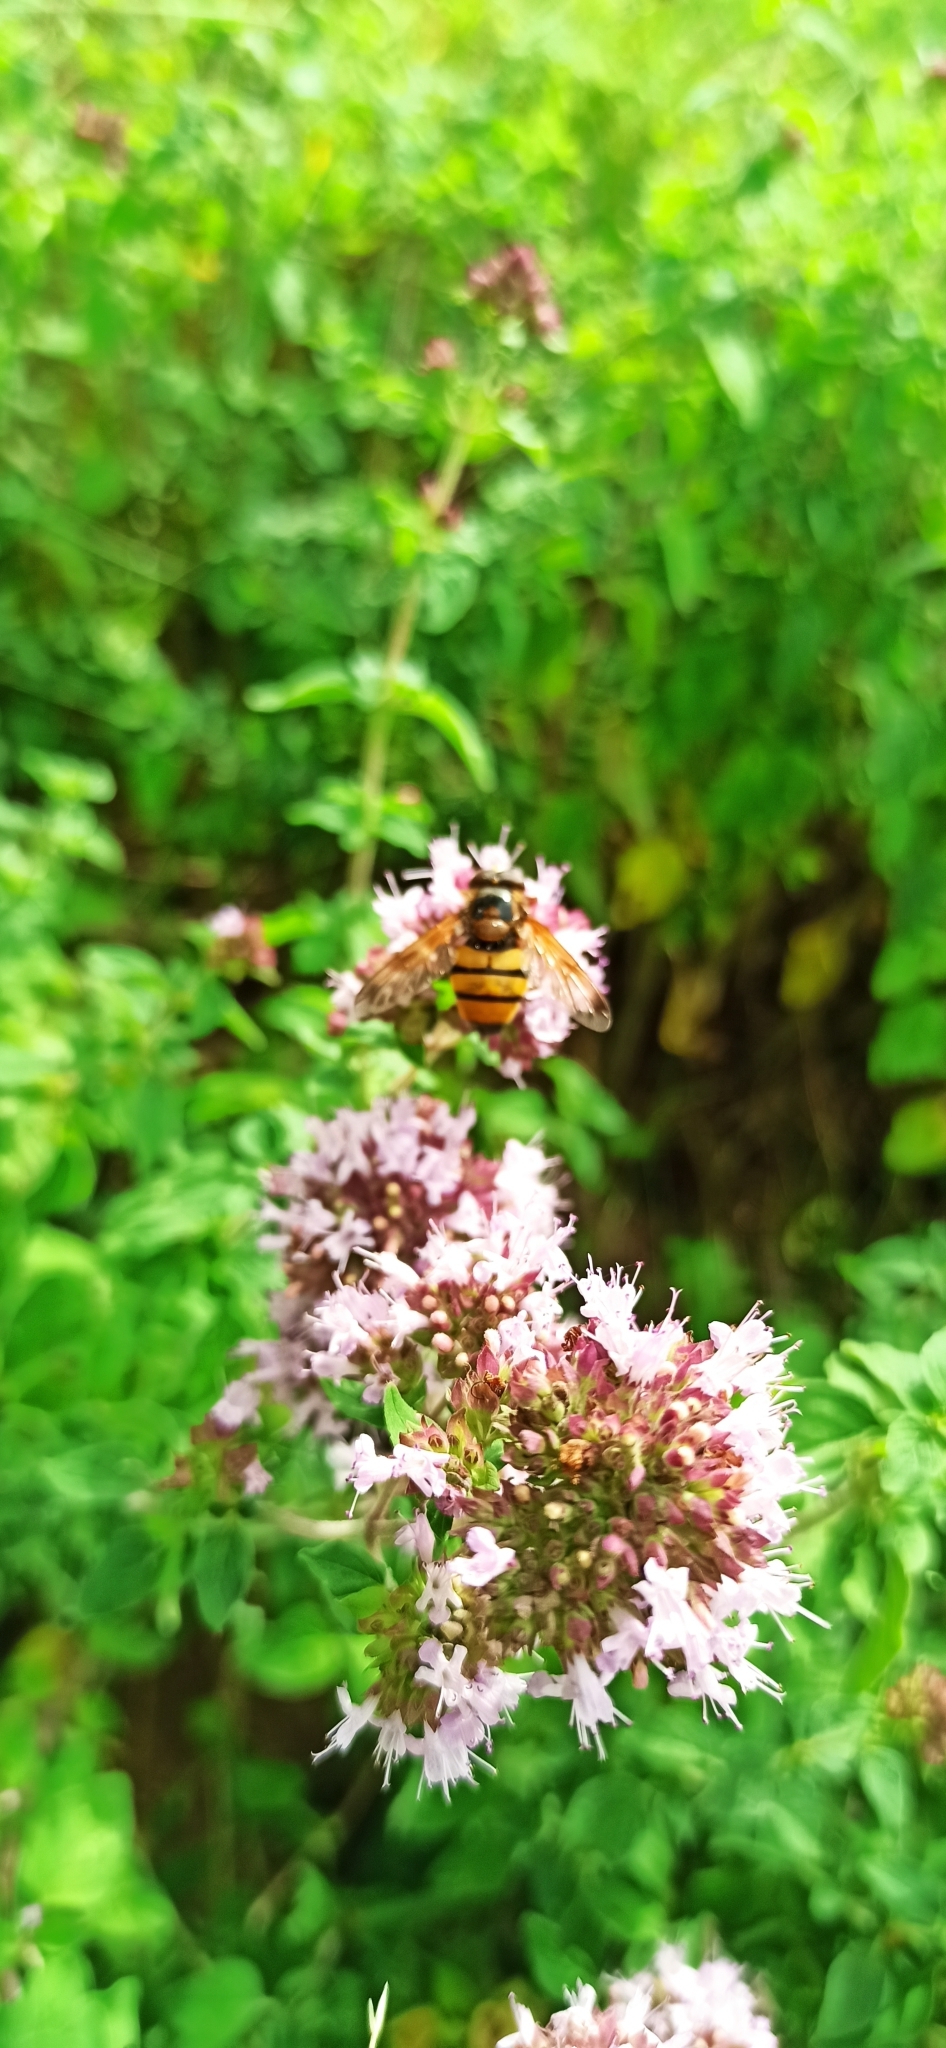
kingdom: Animalia
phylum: Arthropoda
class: Insecta
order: Diptera
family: Syrphidae
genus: Volucella
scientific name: Volucella inanis
